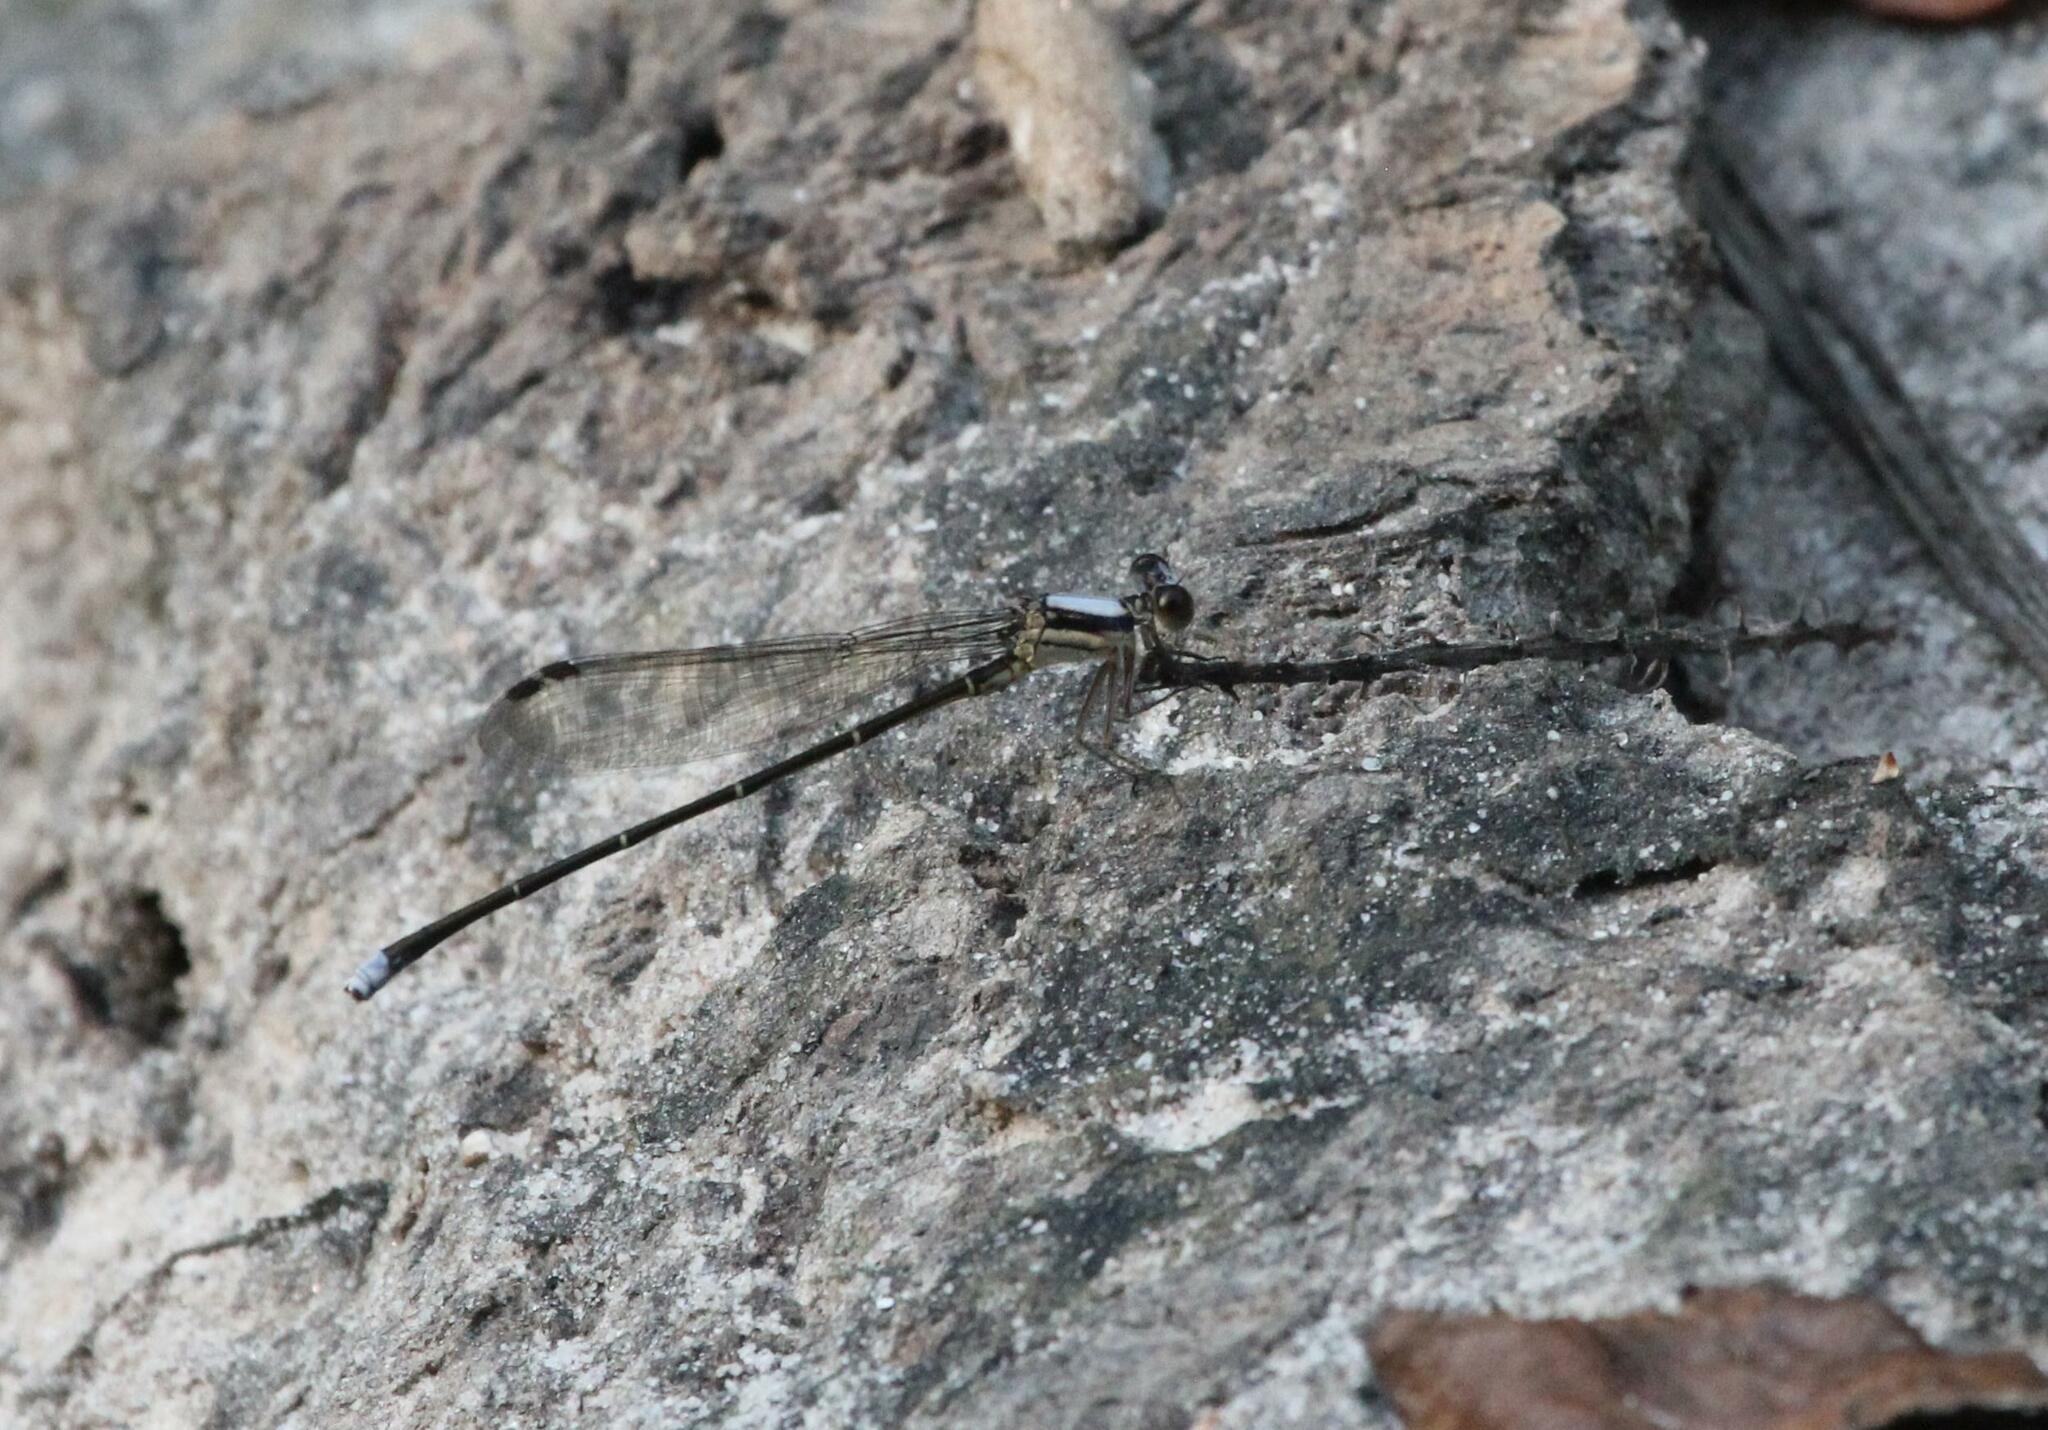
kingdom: Animalia
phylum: Arthropoda
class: Insecta
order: Odonata
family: Coenagrionidae
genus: Argia
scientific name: Argia moesta
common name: Powdered dancer
